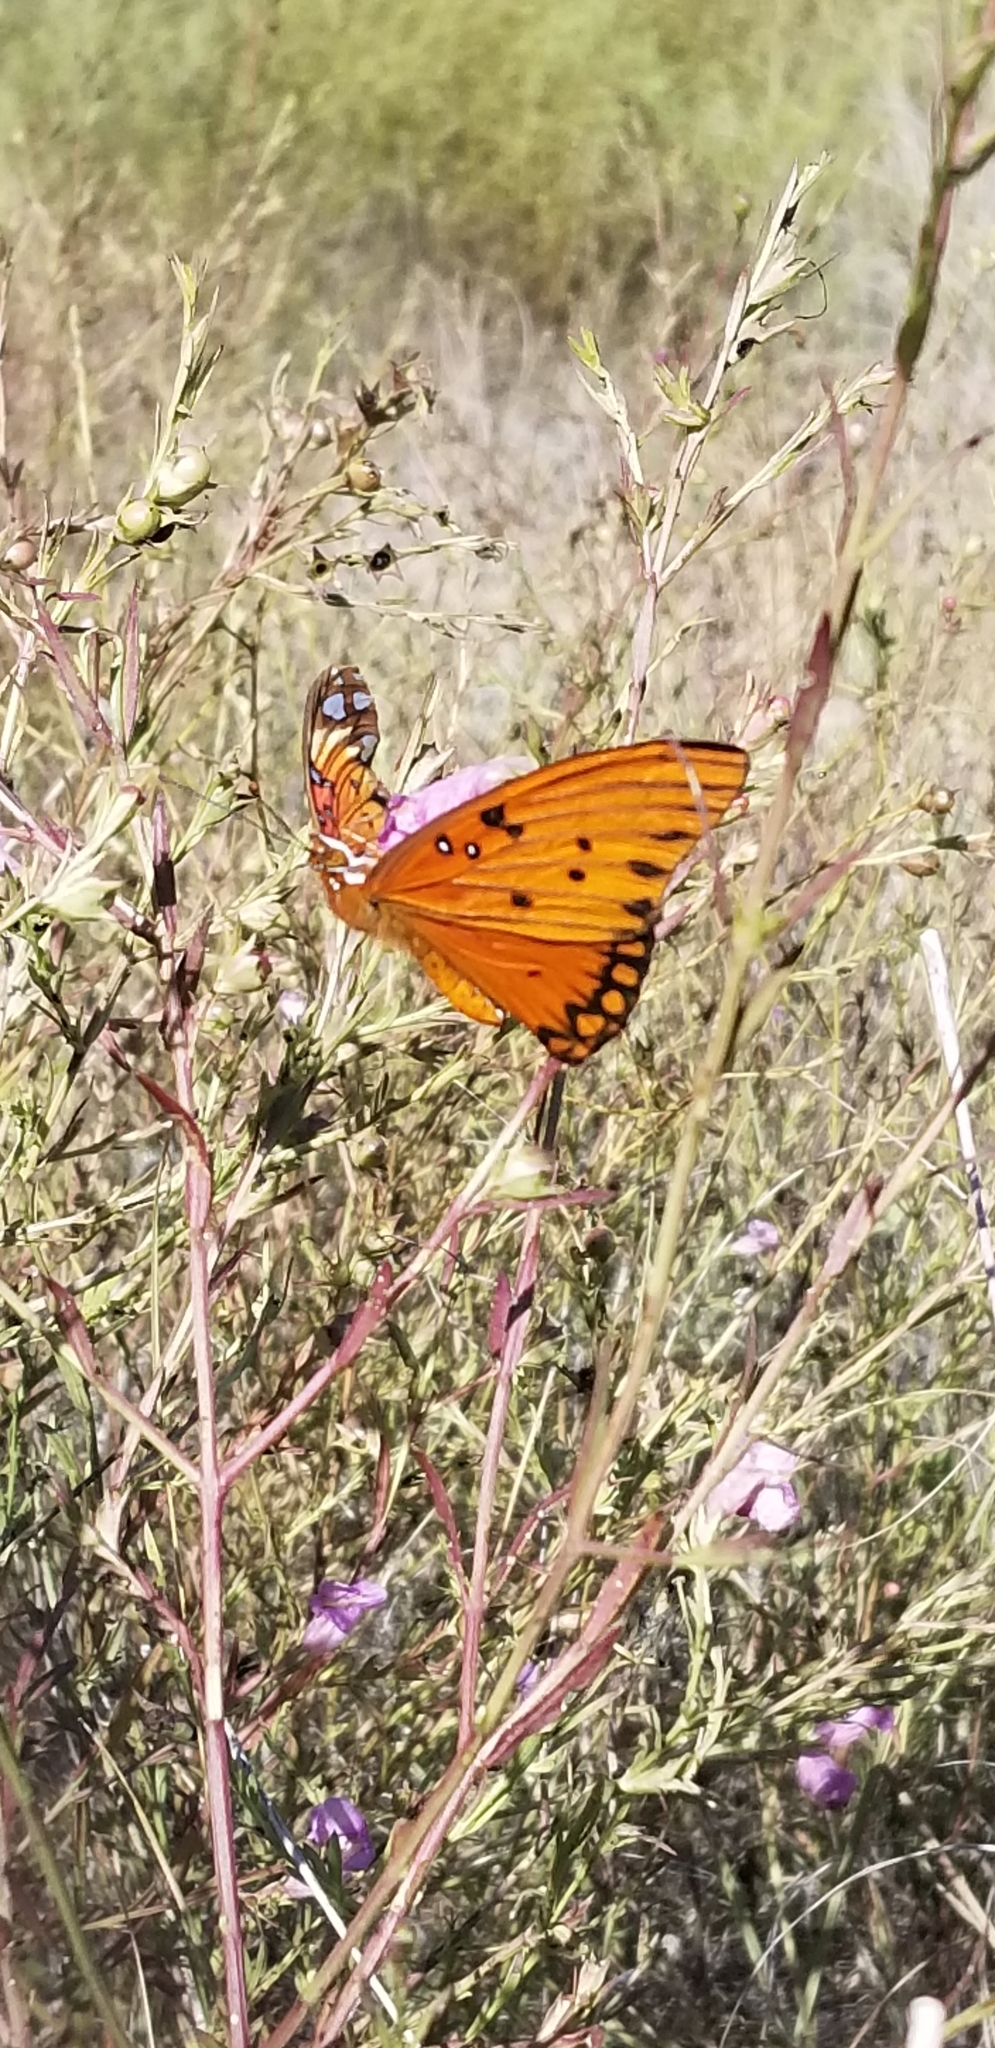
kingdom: Animalia
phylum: Arthropoda
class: Insecta
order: Lepidoptera
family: Nymphalidae
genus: Dione
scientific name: Dione vanillae
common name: Gulf fritillary
